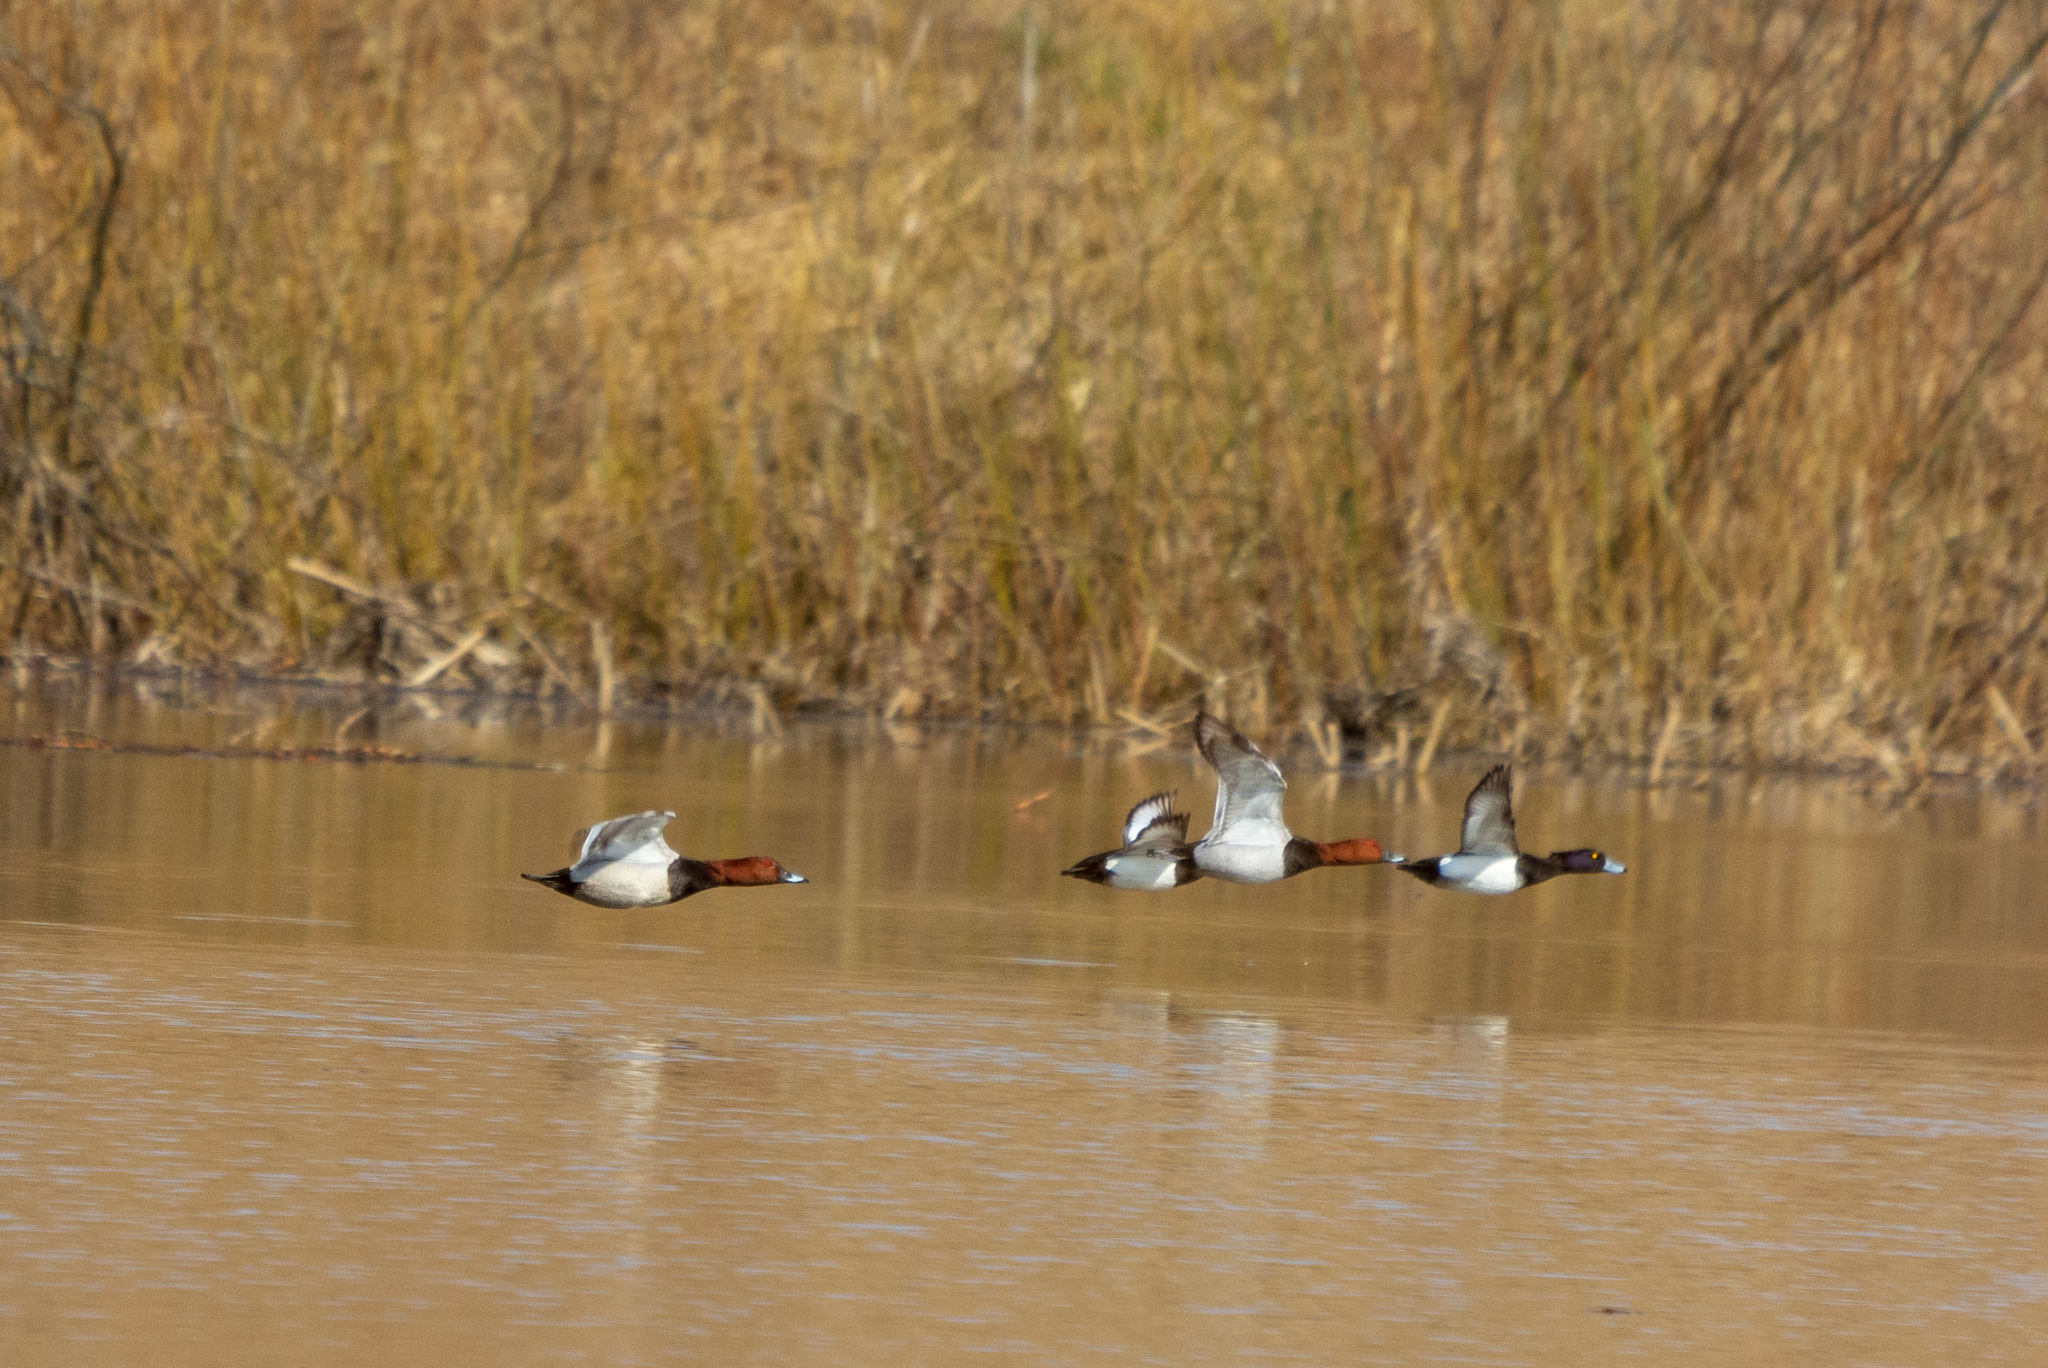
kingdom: Animalia
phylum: Chordata
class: Aves
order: Anseriformes
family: Anatidae
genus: Aythya
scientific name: Aythya ferina
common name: Common pochard
